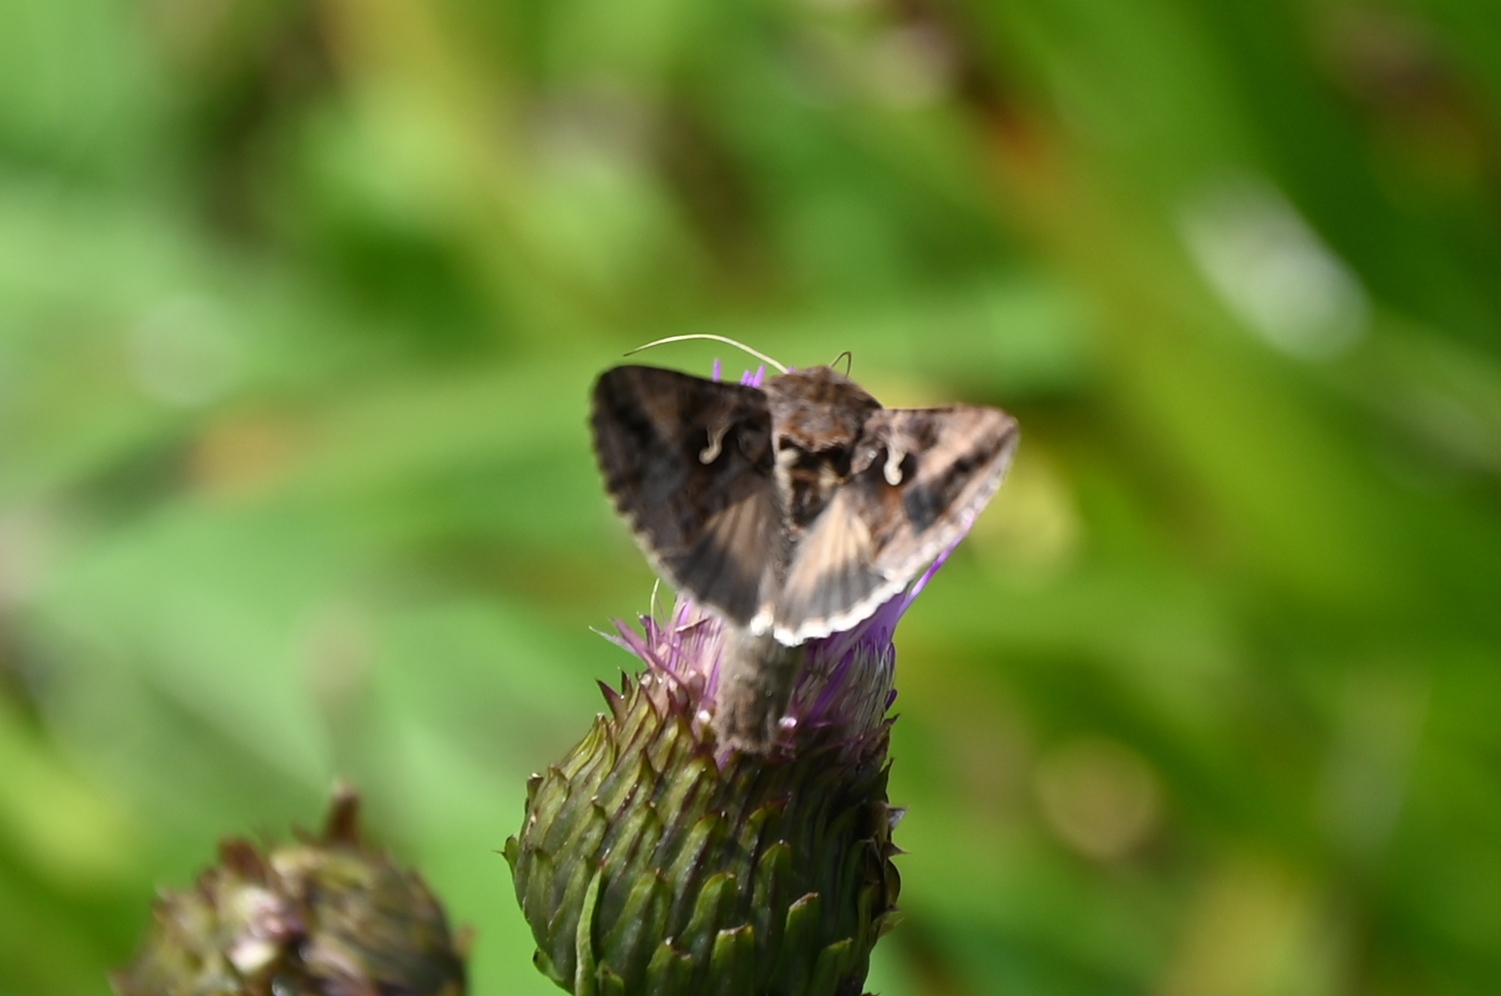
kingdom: Animalia
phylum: Arthropoda
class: Insecta
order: Lepidoptera
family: Noctuidae
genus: Autographa
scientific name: Autographa gamma
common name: Silver y
